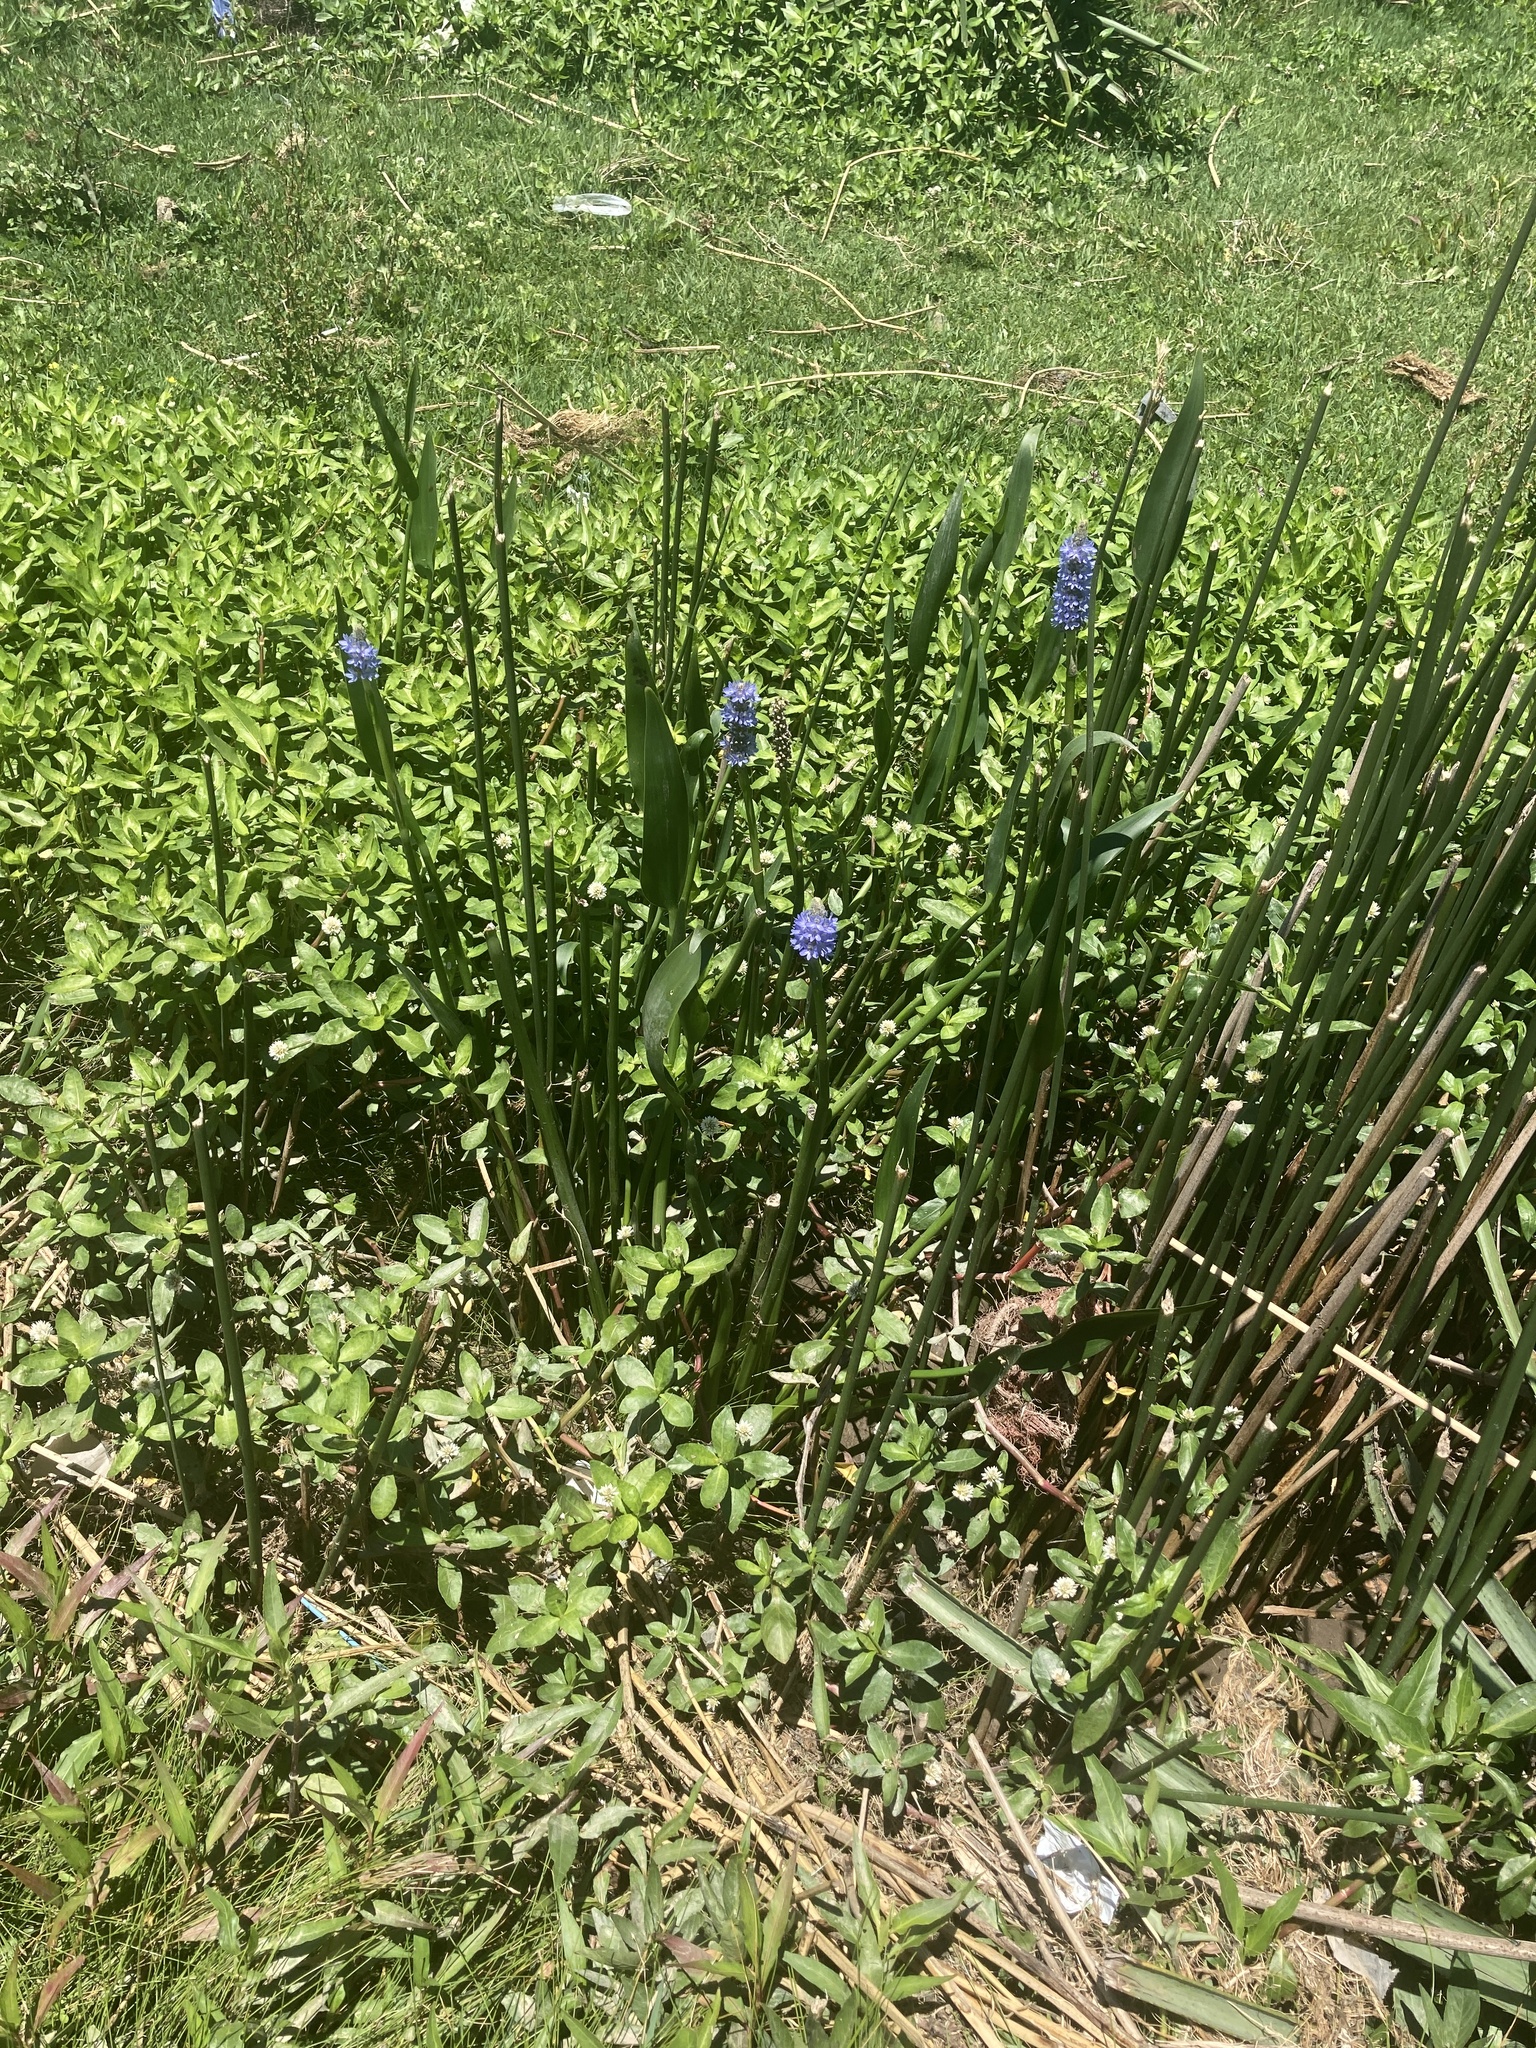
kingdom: Plantae
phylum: Tracheophyta
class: Liliopsida
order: Commelinales
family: Pontederiaceae
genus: Pontederia
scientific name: Pontederia cordata
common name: Pickerelweed
